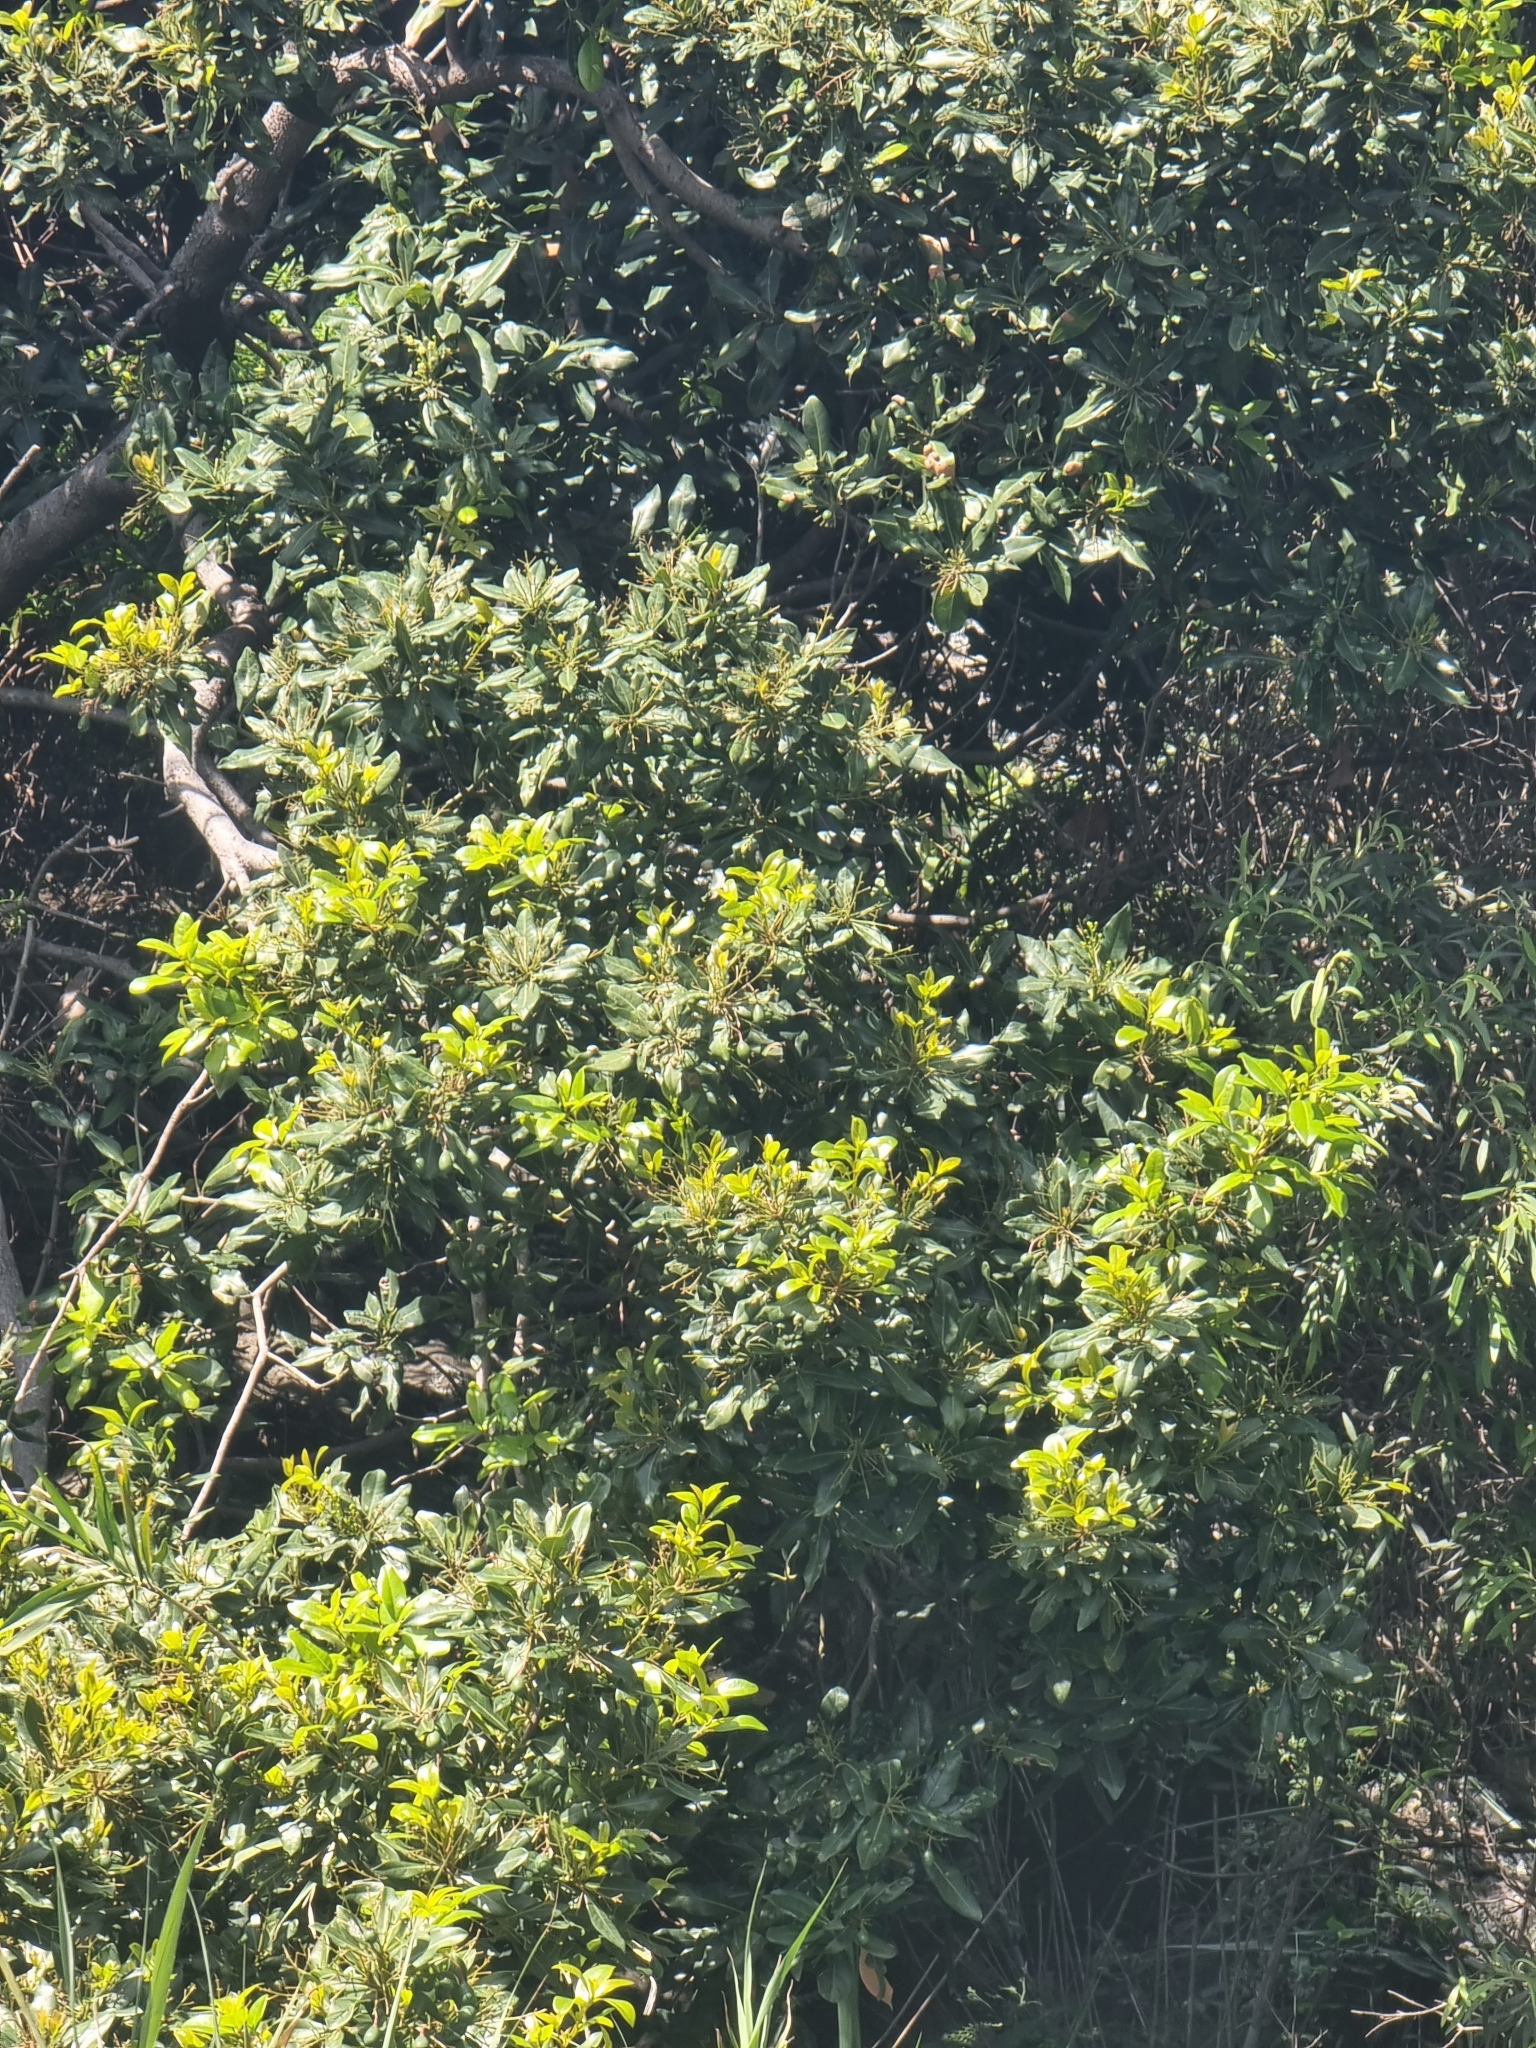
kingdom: Plantae
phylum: Tracheophyta
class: Magnoliopsida
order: Laurales
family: Lauraceae
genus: Apollonias
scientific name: Apollonias barbujana
